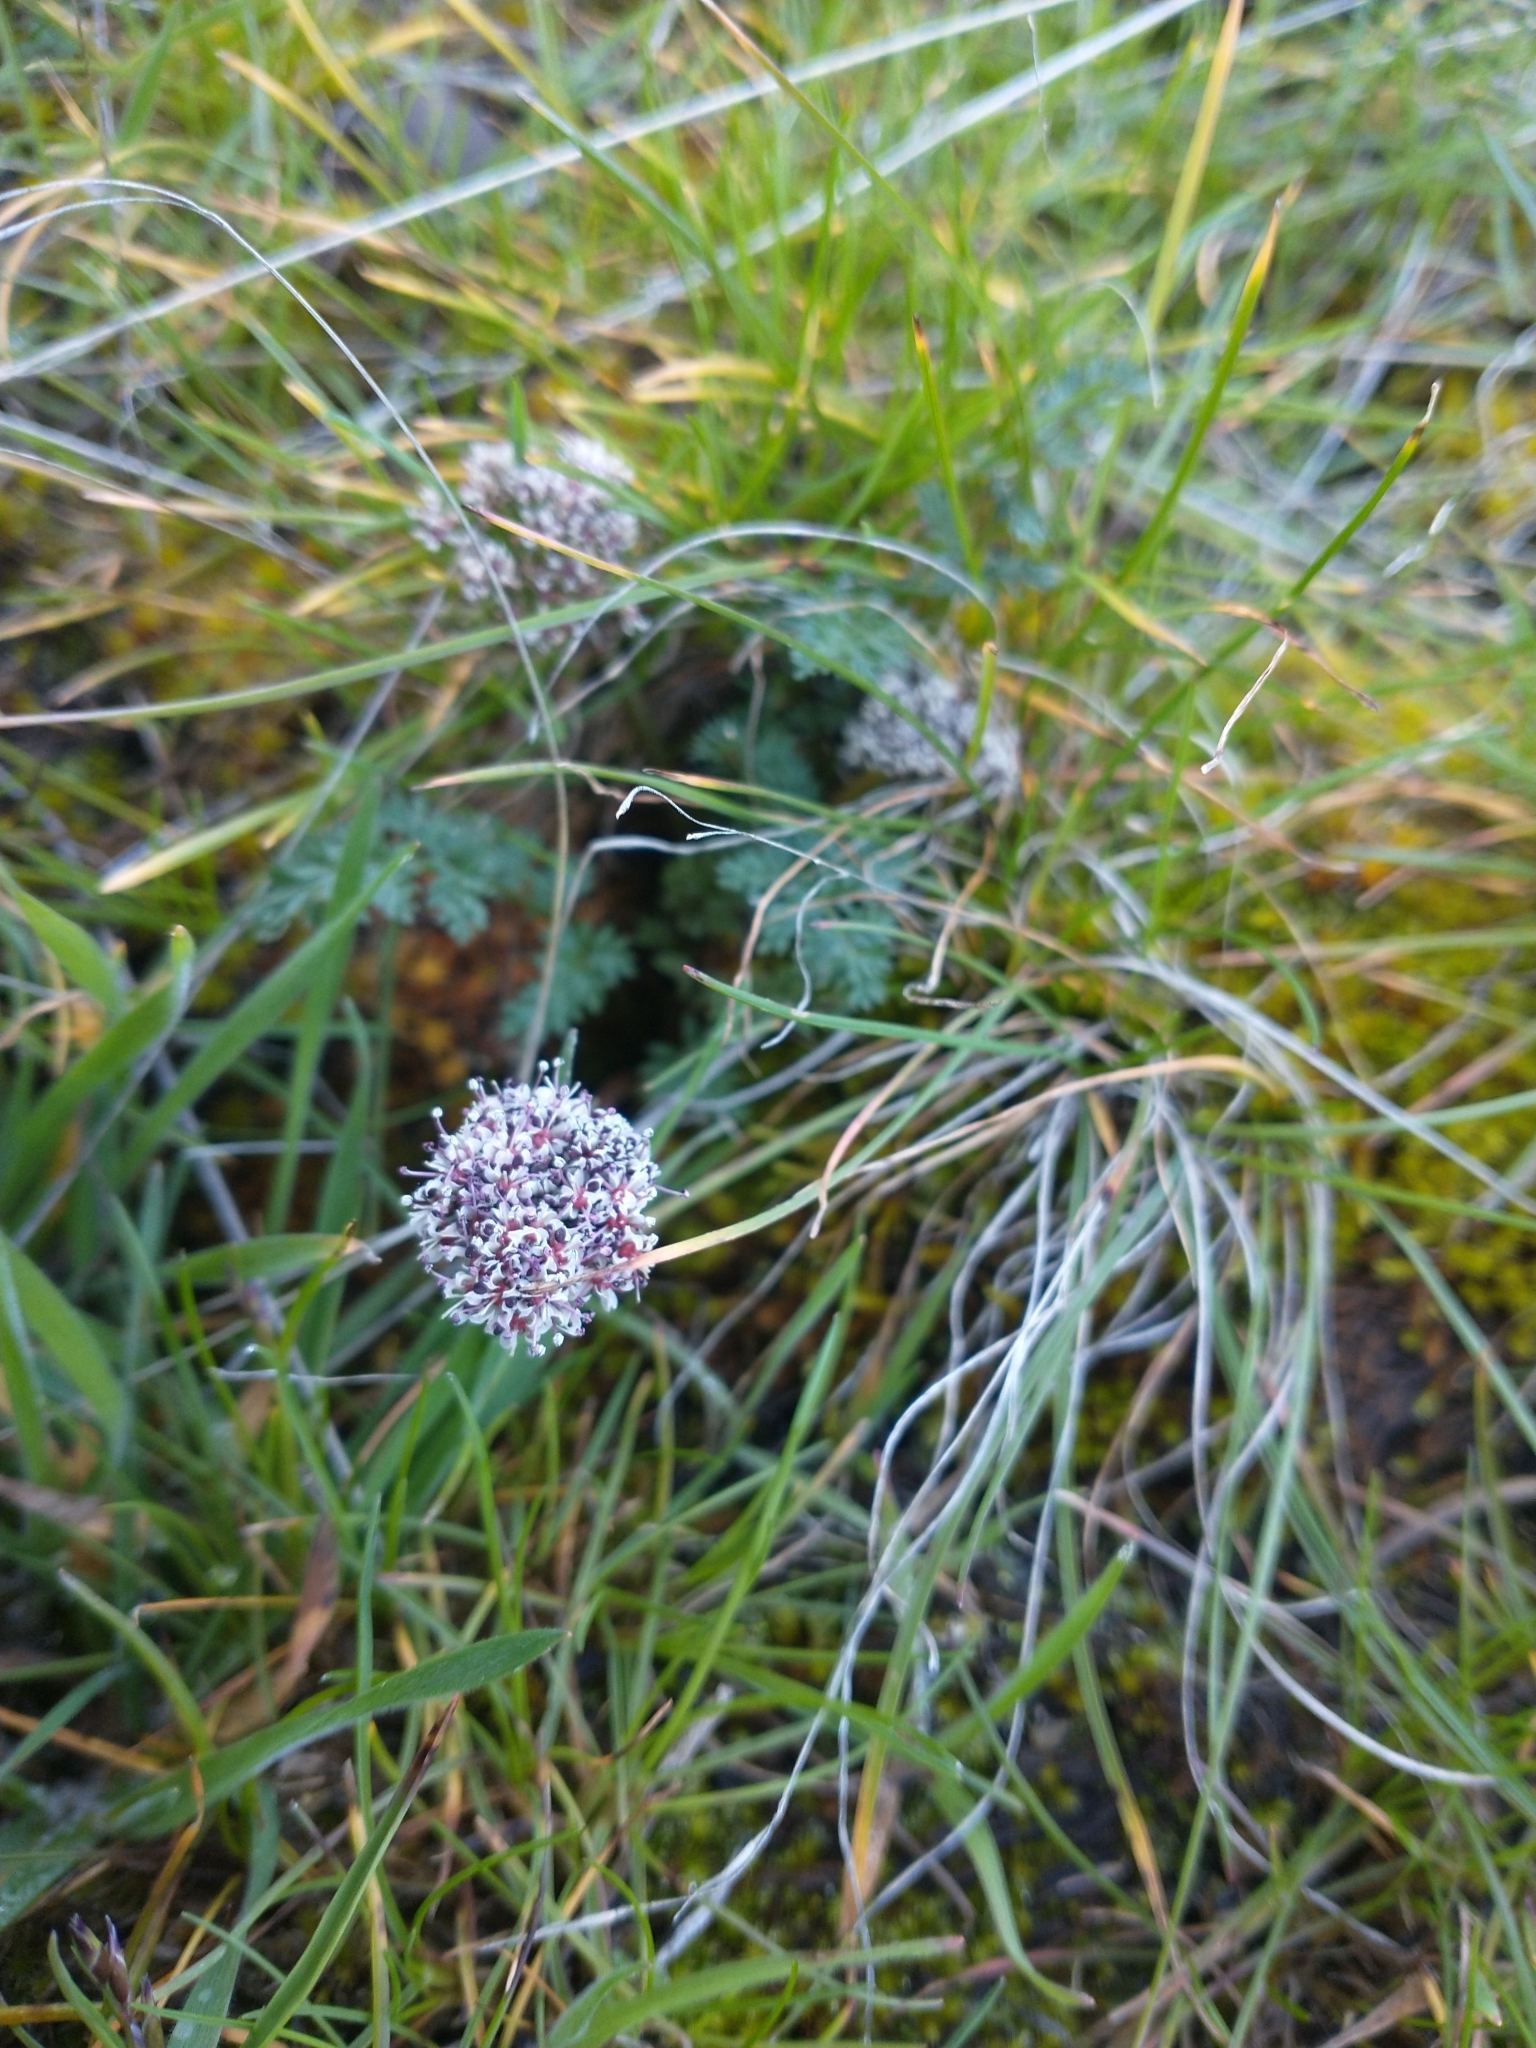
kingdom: Plantae
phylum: Tracheophyta
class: Magnoliopsida
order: Apiales
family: Apiaceae
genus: Lomatium
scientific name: Lomatium canbyi
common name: Chucklusa
